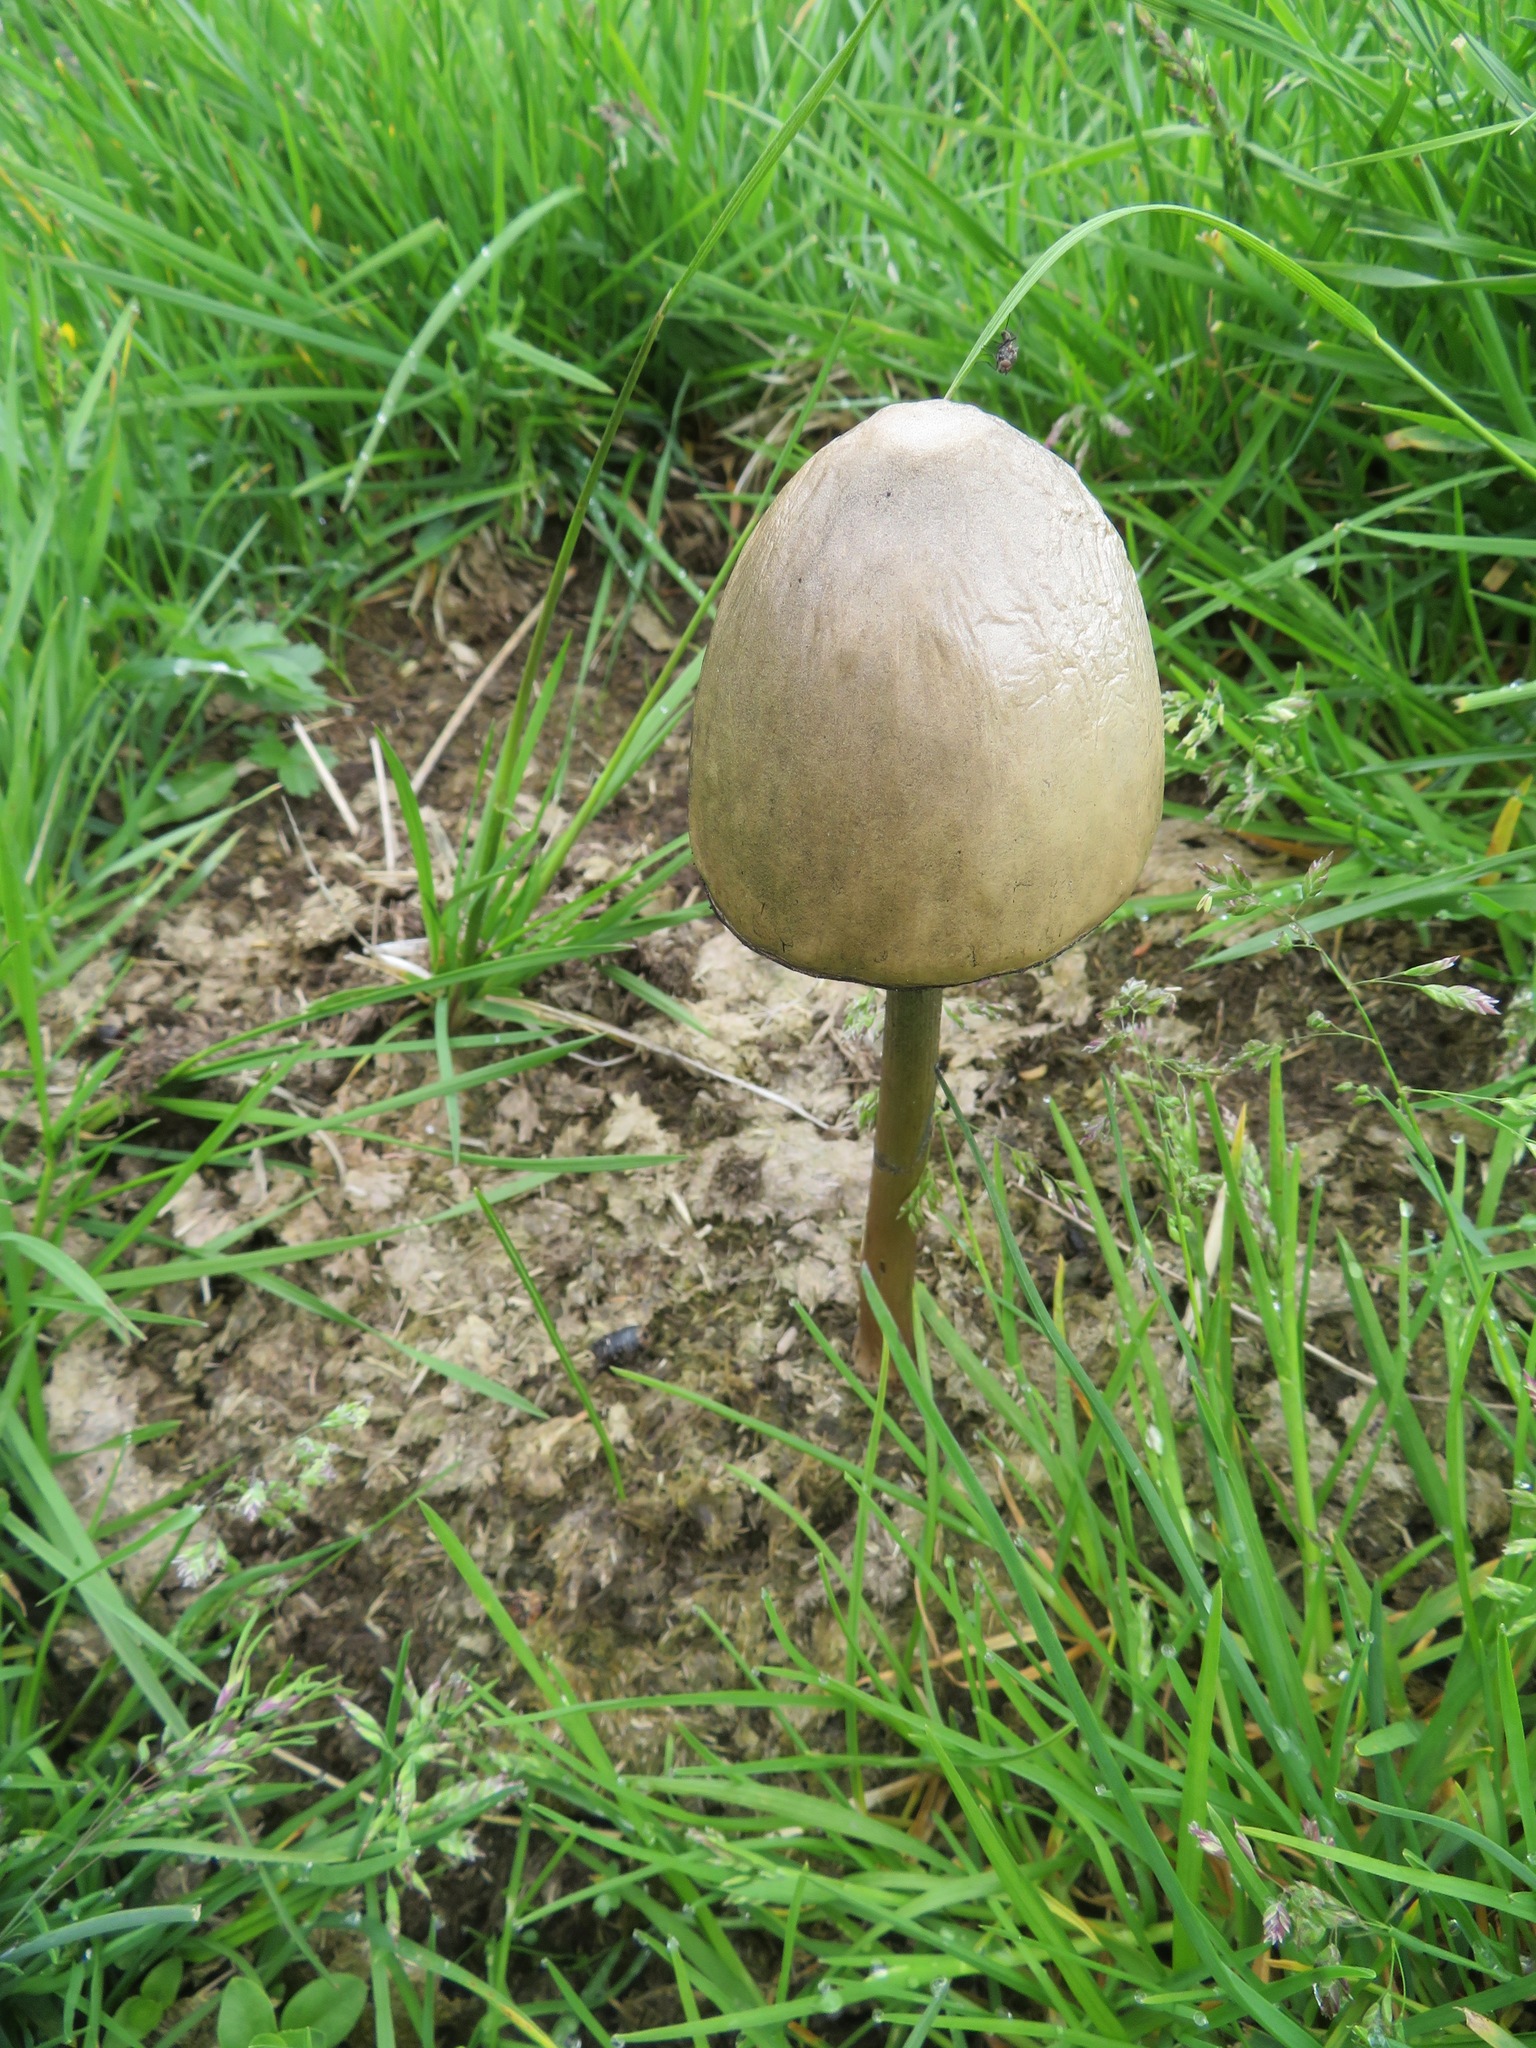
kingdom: Fungi
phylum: Basidiomycota
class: Agaricomycetes
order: Agaricales
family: Bolbitiaceae
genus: Panaeolus
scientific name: Panaeolus semiovatus
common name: Shiny mottlegill
